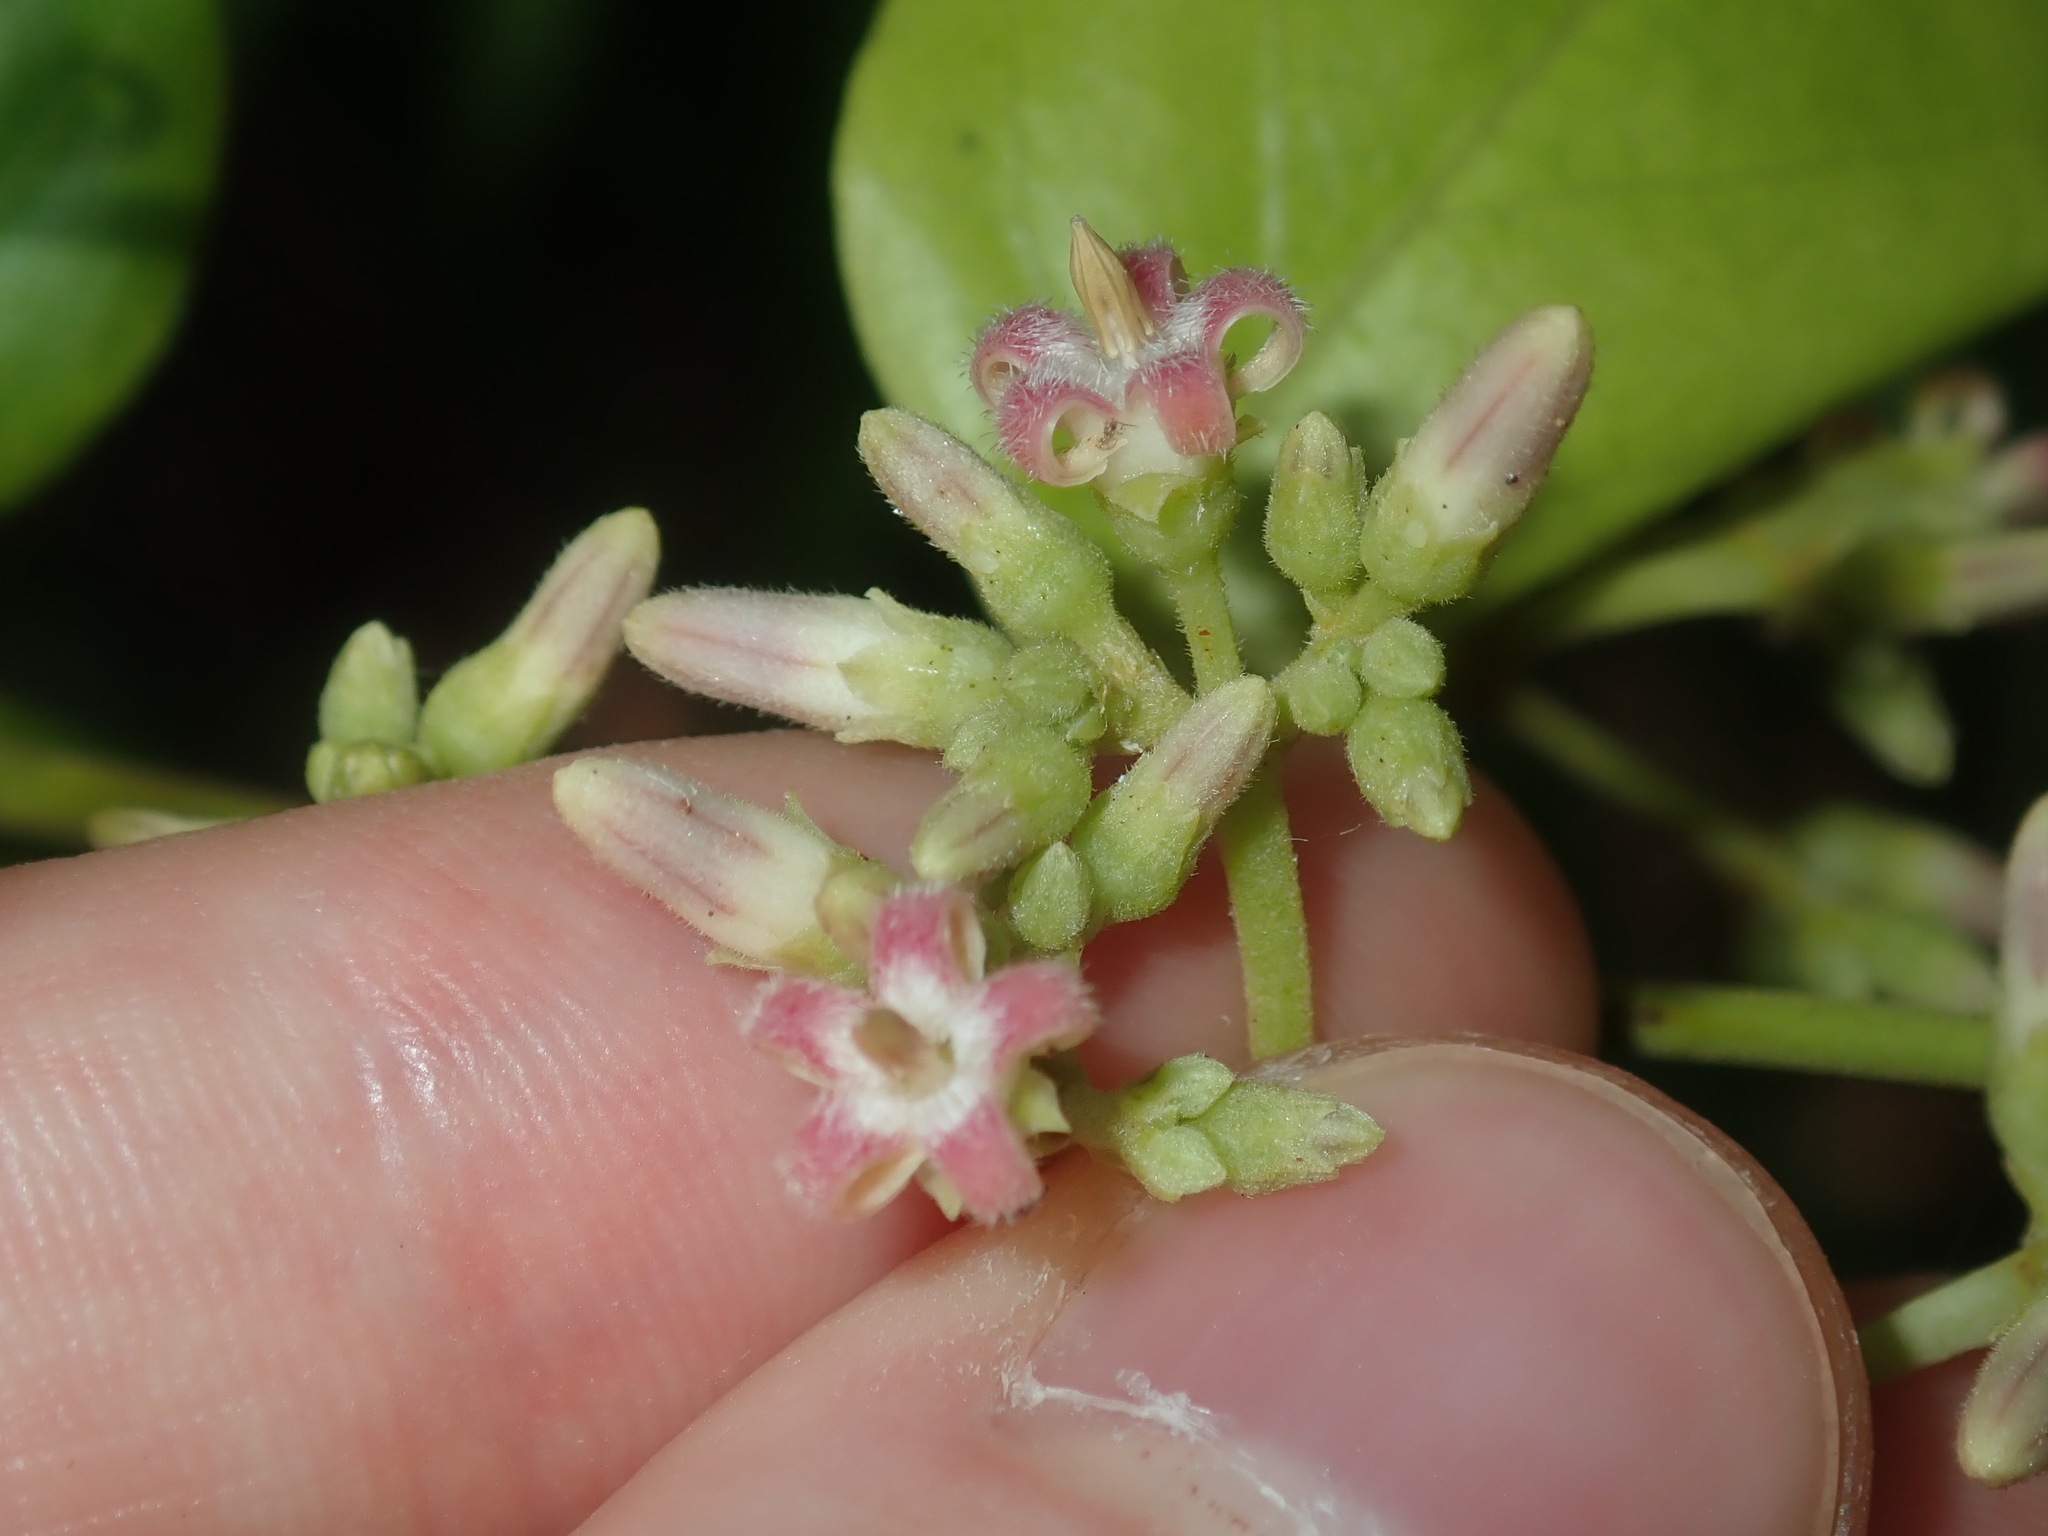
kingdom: Plantae
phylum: Tracheophyta
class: Magnoliopsida
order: Gentianales
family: Apocynaceae
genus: Parsonsia
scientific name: Parsonsia straminea
